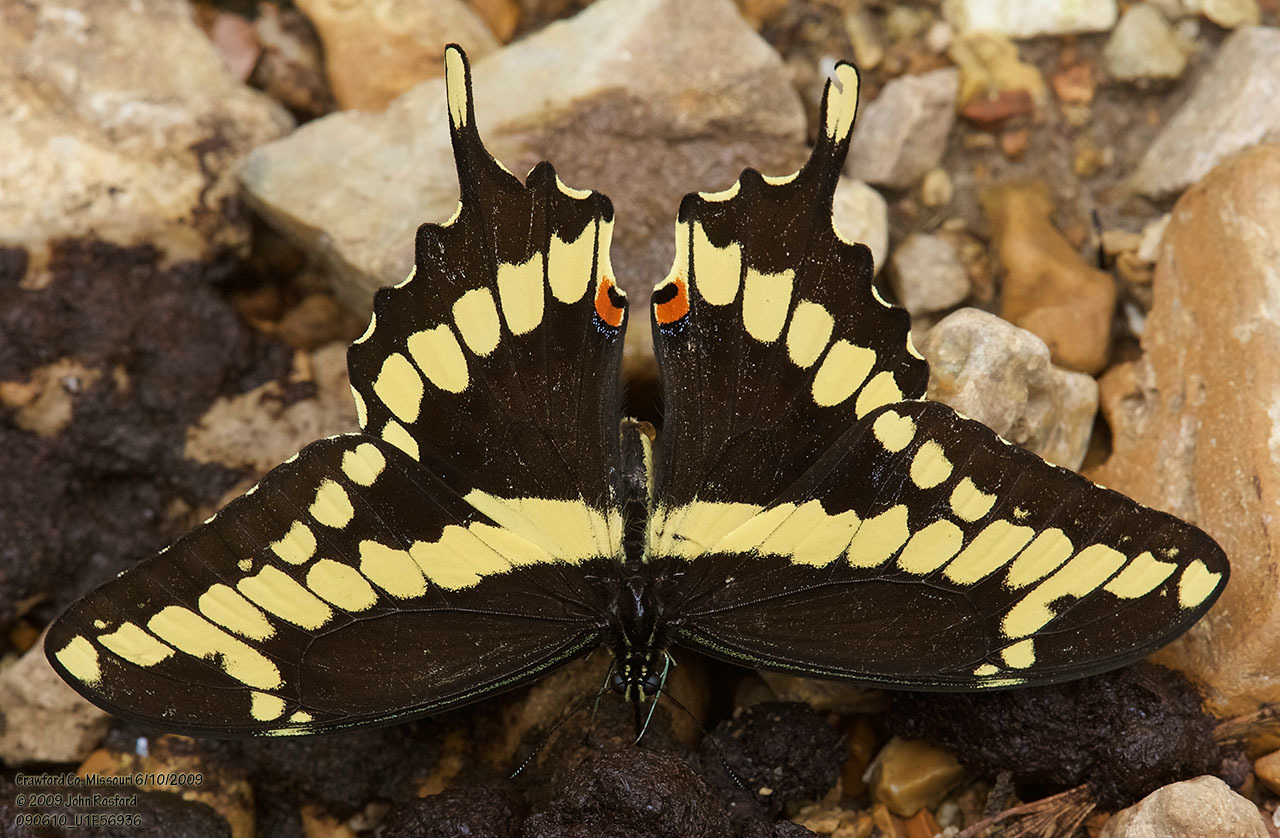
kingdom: Animalia
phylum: Arthropoda
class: Insecta
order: Lepidoptera
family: Papilionidae
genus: Papilio
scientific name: Papilio cresphontes
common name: Giant swallowtail
